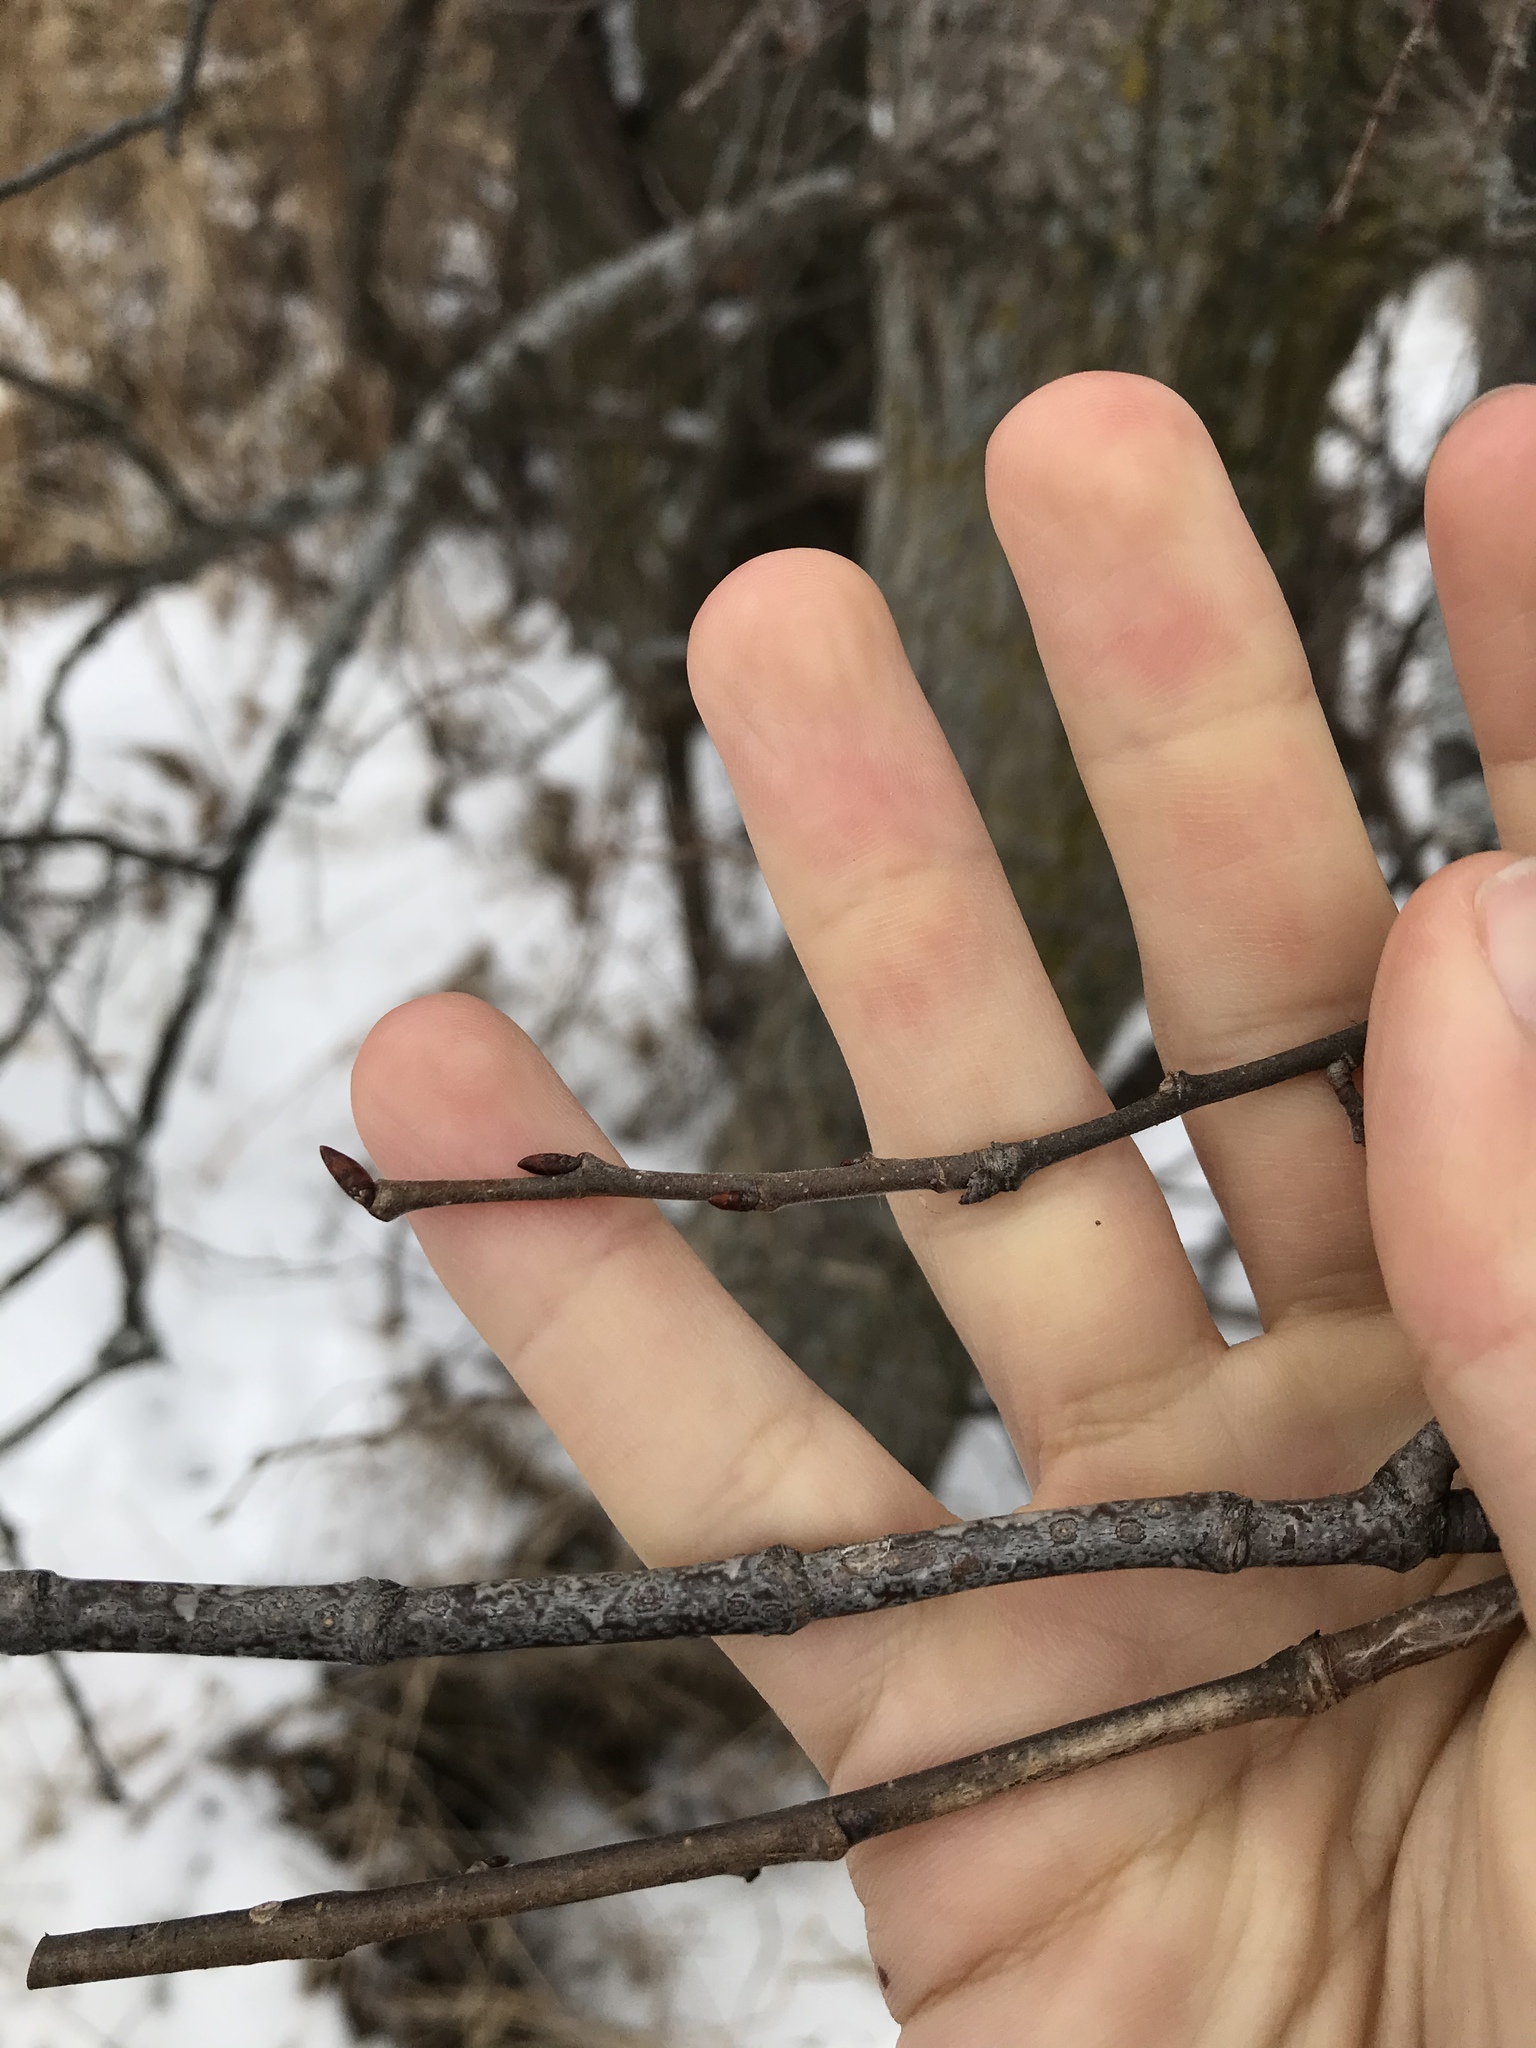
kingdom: Plantae
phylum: Tracheophyta
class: Magnoliopsida
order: Rosales
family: Ulmaceae
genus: Ulmus
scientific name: Ulmus americana
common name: American elm
